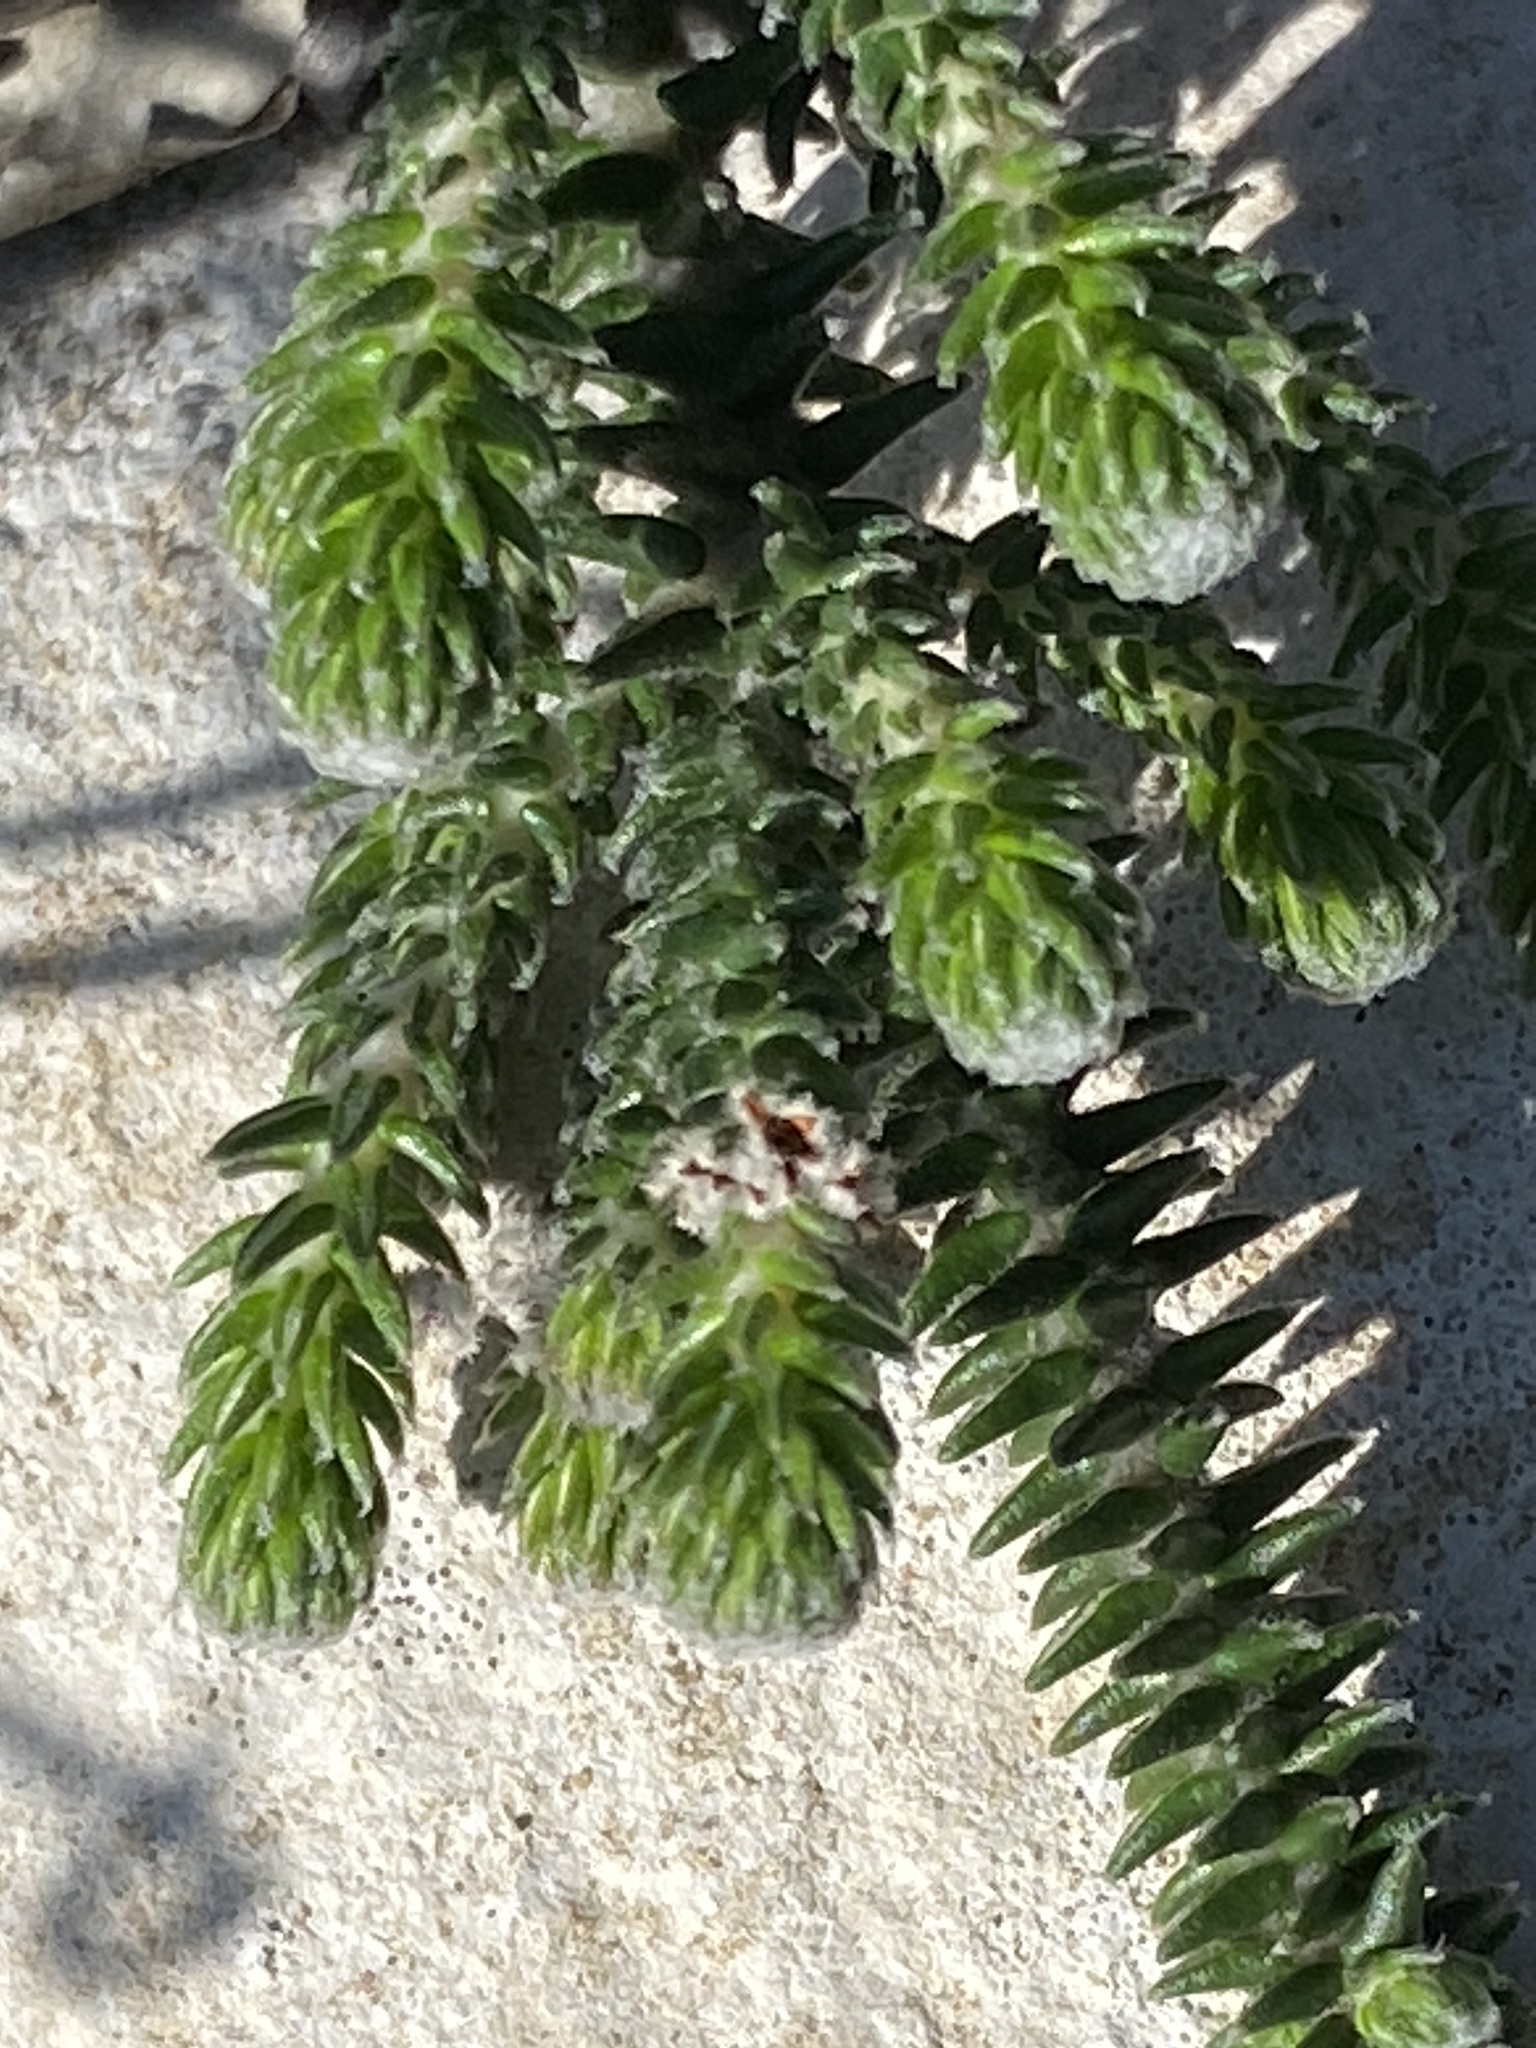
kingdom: Plantae
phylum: Tracheophyta
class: Magnoliopsida
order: Rosales
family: Rhamnaceae
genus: Phylica
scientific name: Phylica laevigata
